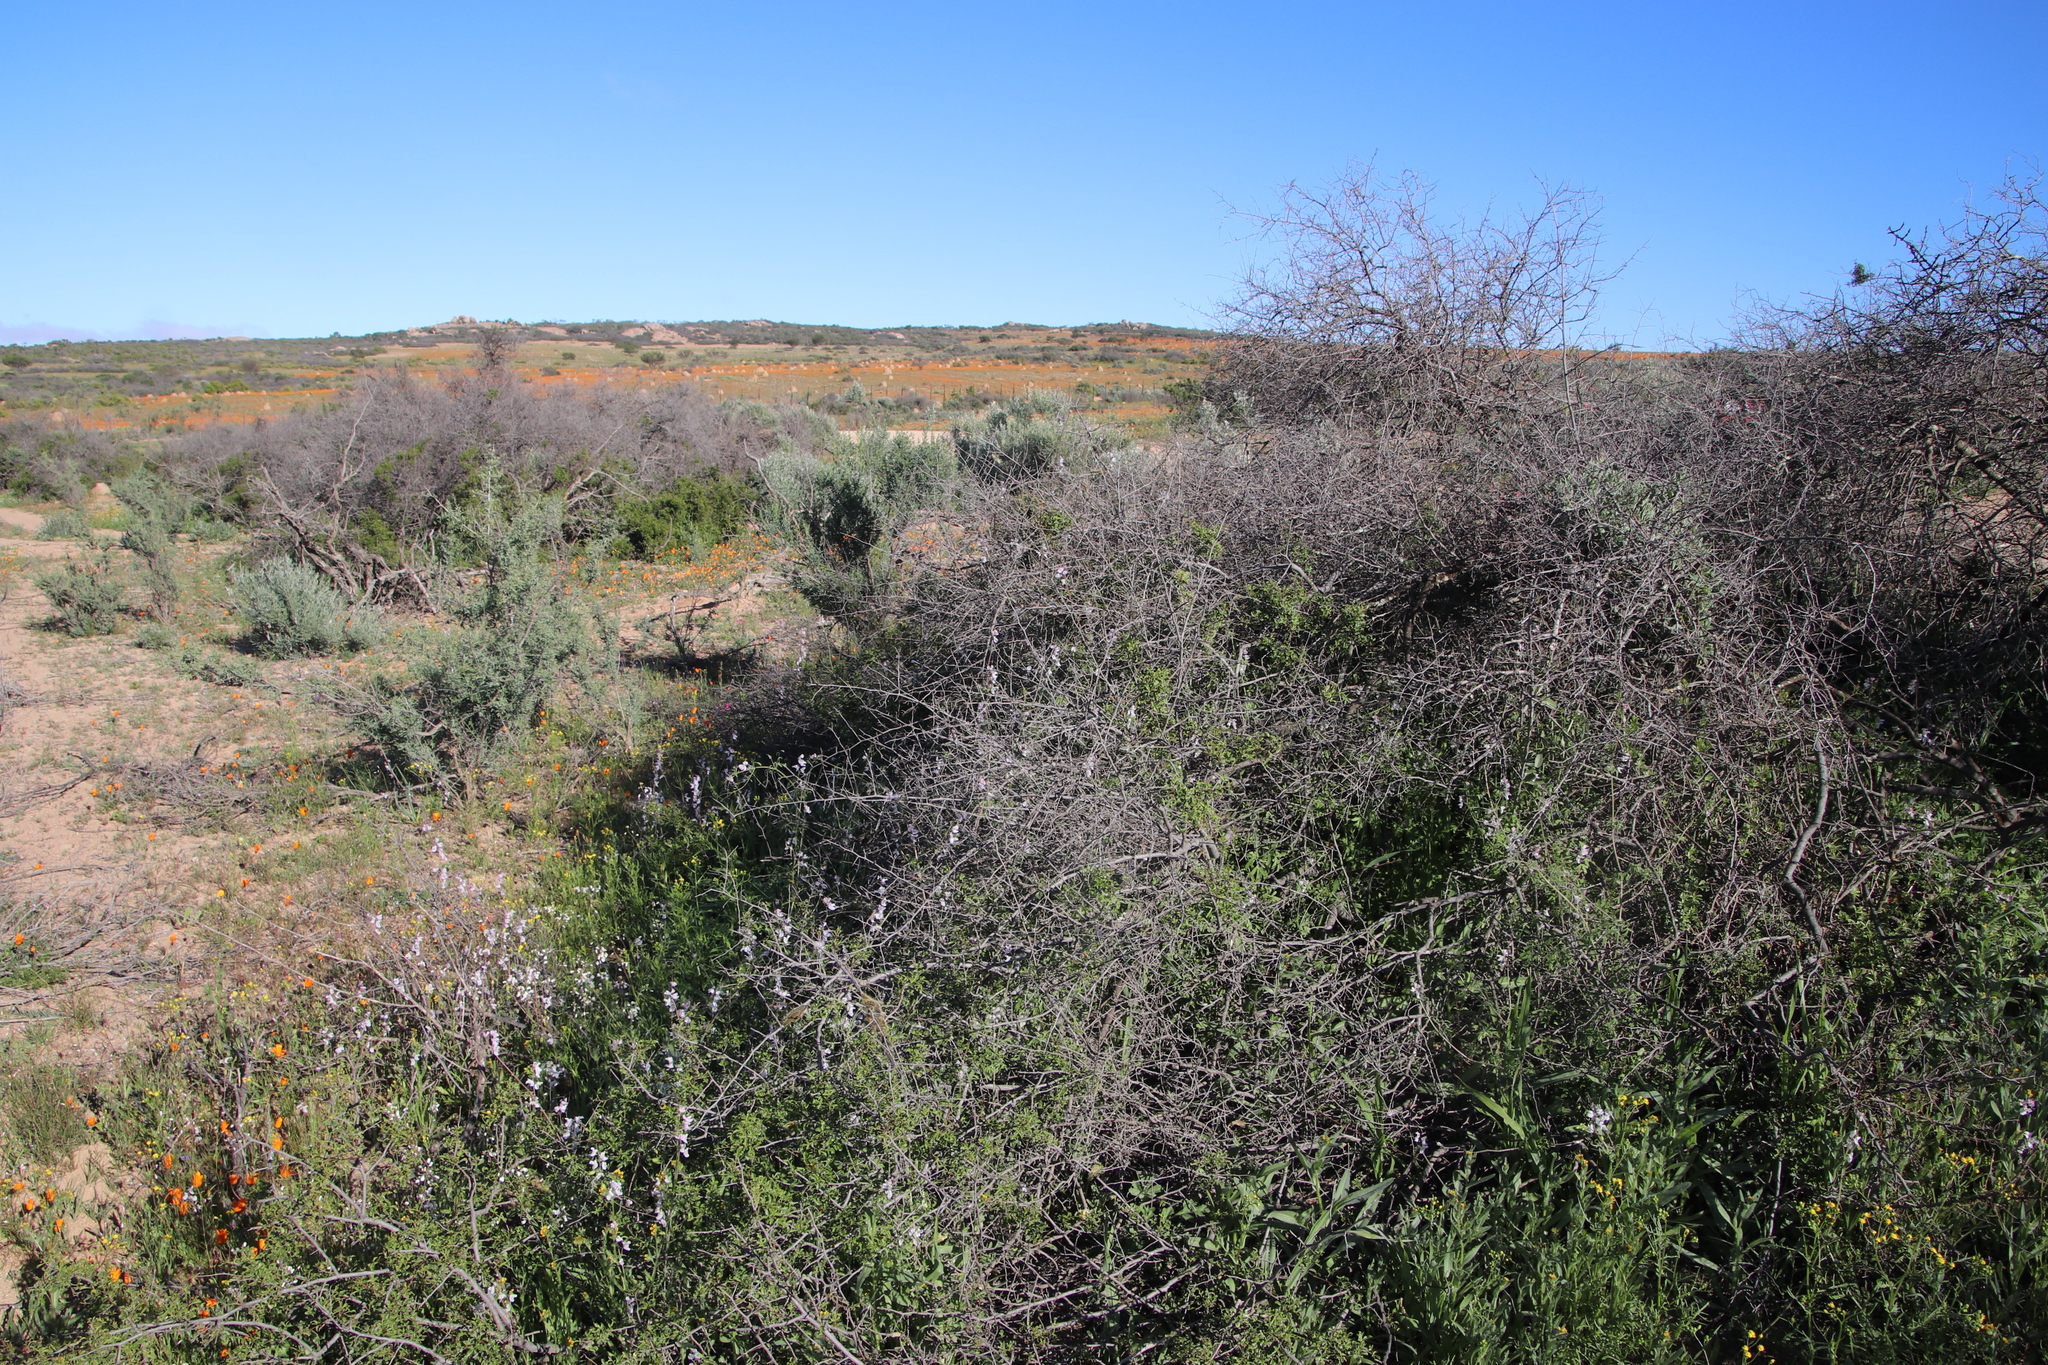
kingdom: Plantae
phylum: Tracheophyta
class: Magnoliopsida
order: Ranunculales
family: Papaveraceae
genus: Cysticapnos
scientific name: Cysticapnos vesicaria
